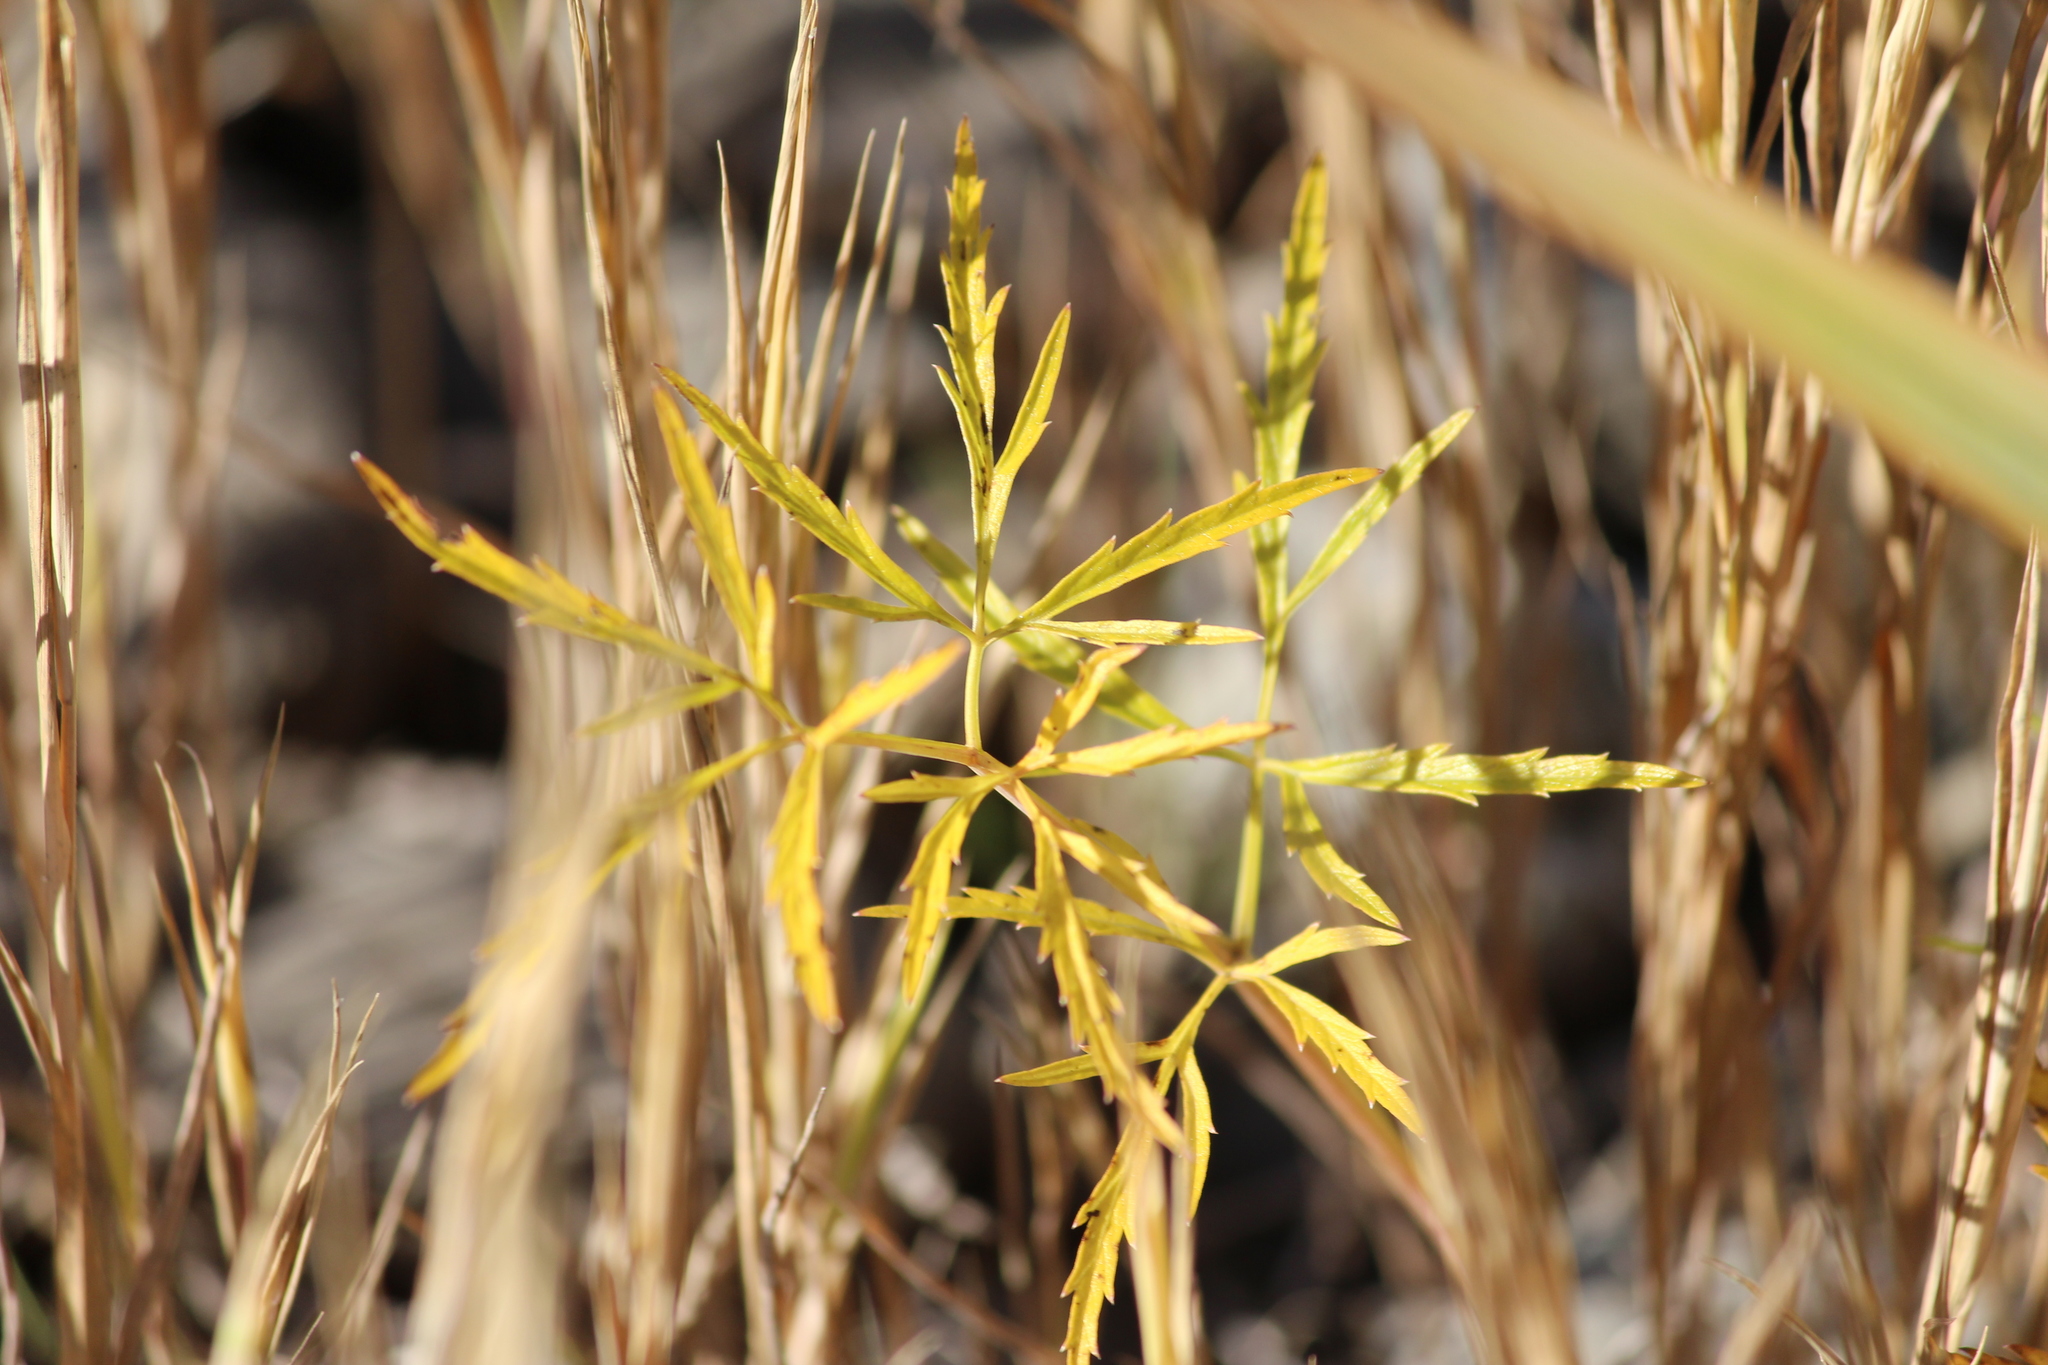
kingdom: Plantae
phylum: Tracheophyta
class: Magnoliopsida
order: Apiales
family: Apiaceae
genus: Cicuta
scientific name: Cicuta virosa
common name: Cowbane
